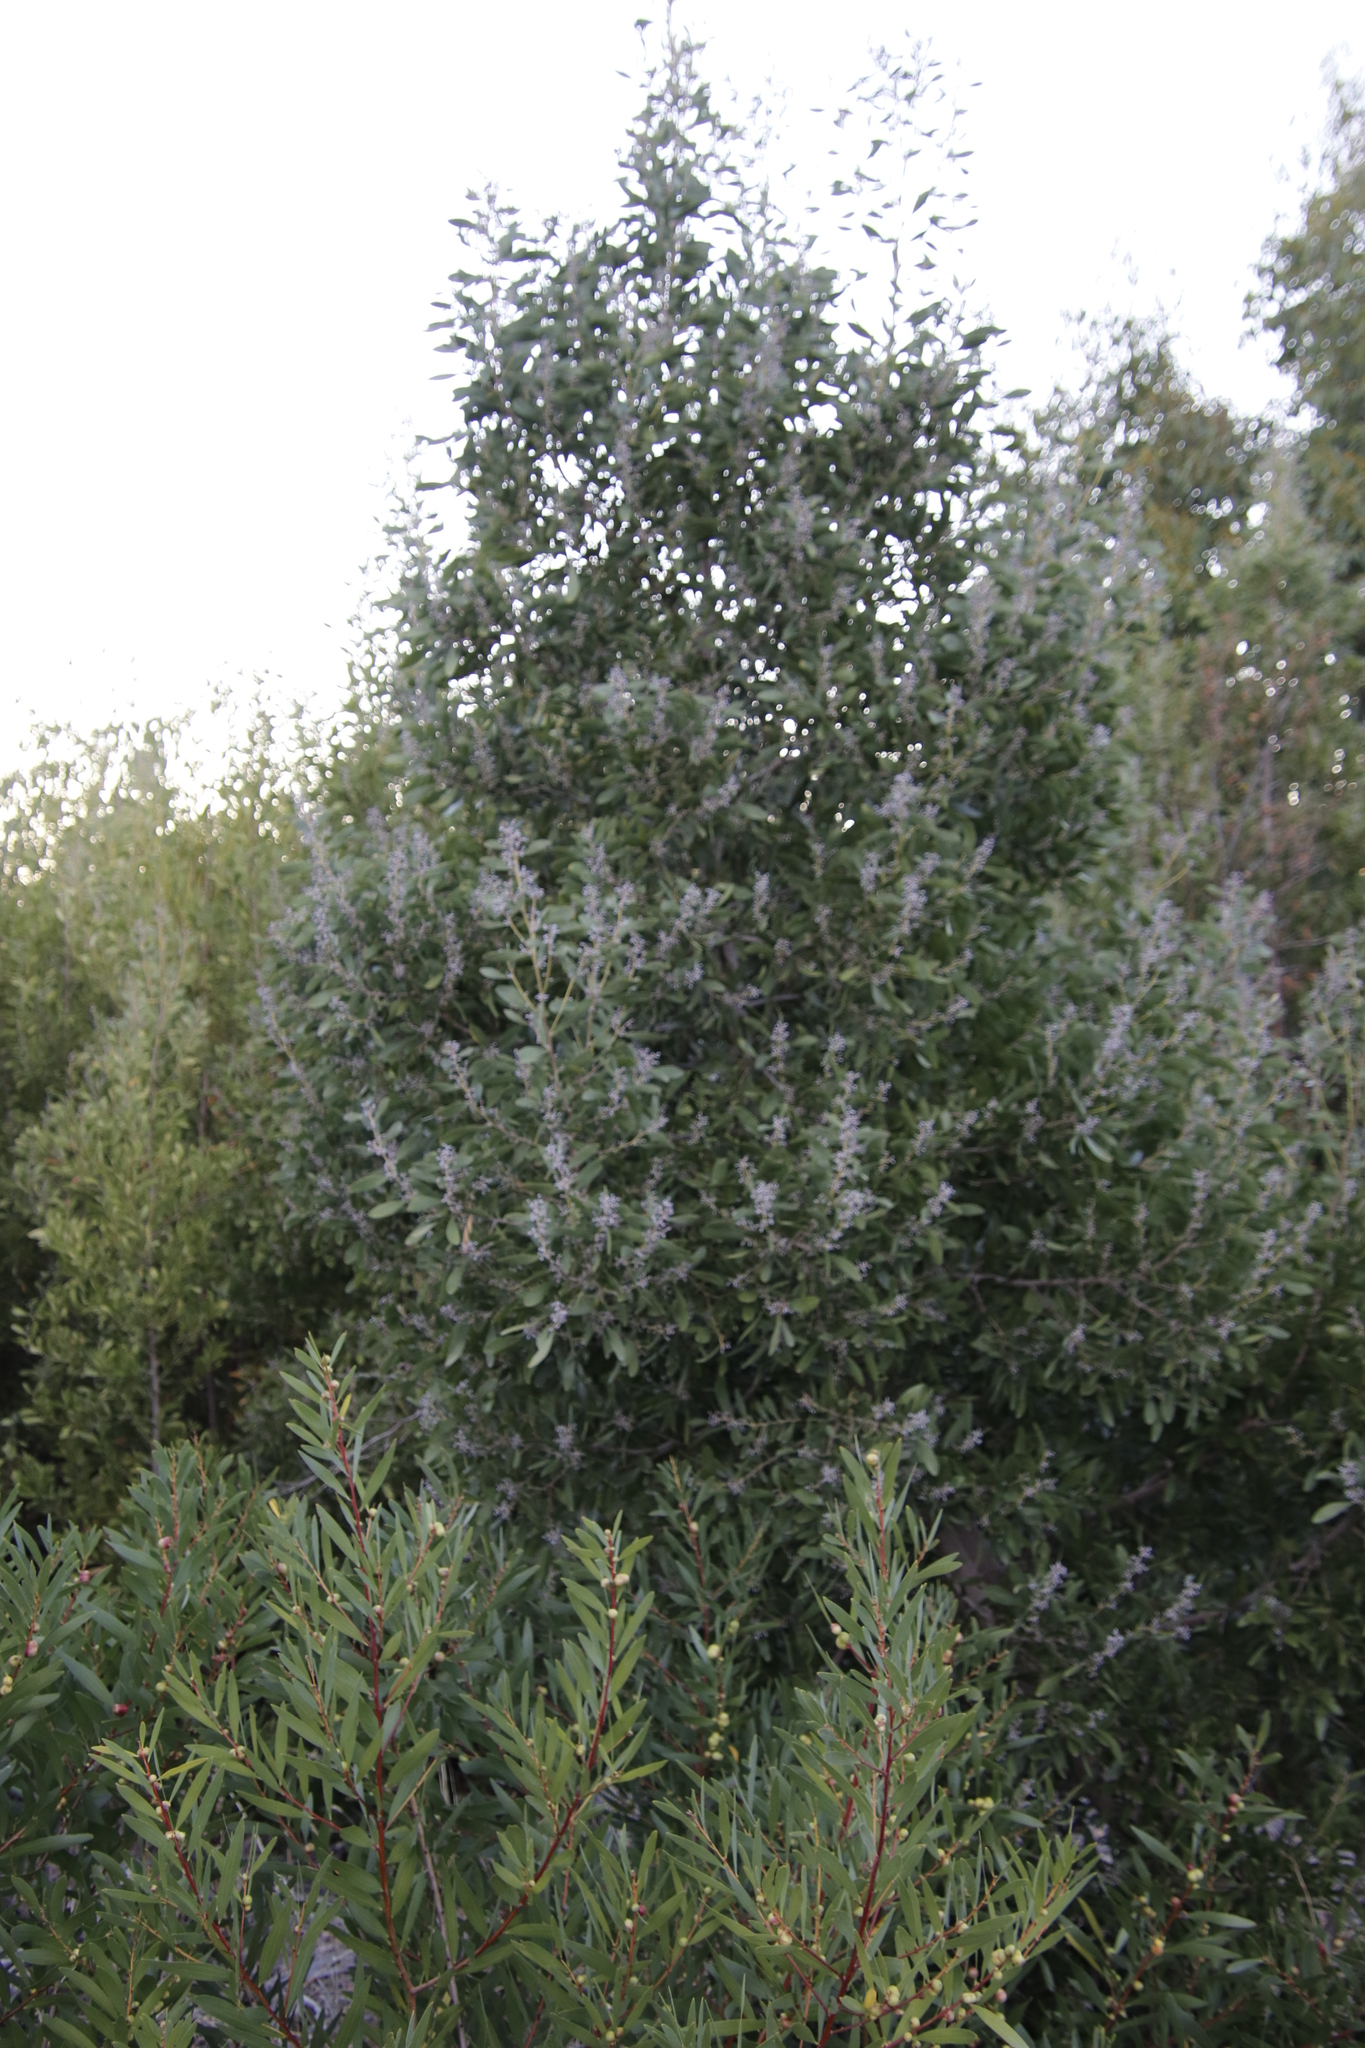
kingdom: Plantae
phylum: Tracheophyta
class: Magnoliopsida
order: Fabales
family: Fabaceae
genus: Acacia
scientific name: Acacia melanoxylon
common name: Blackwood
